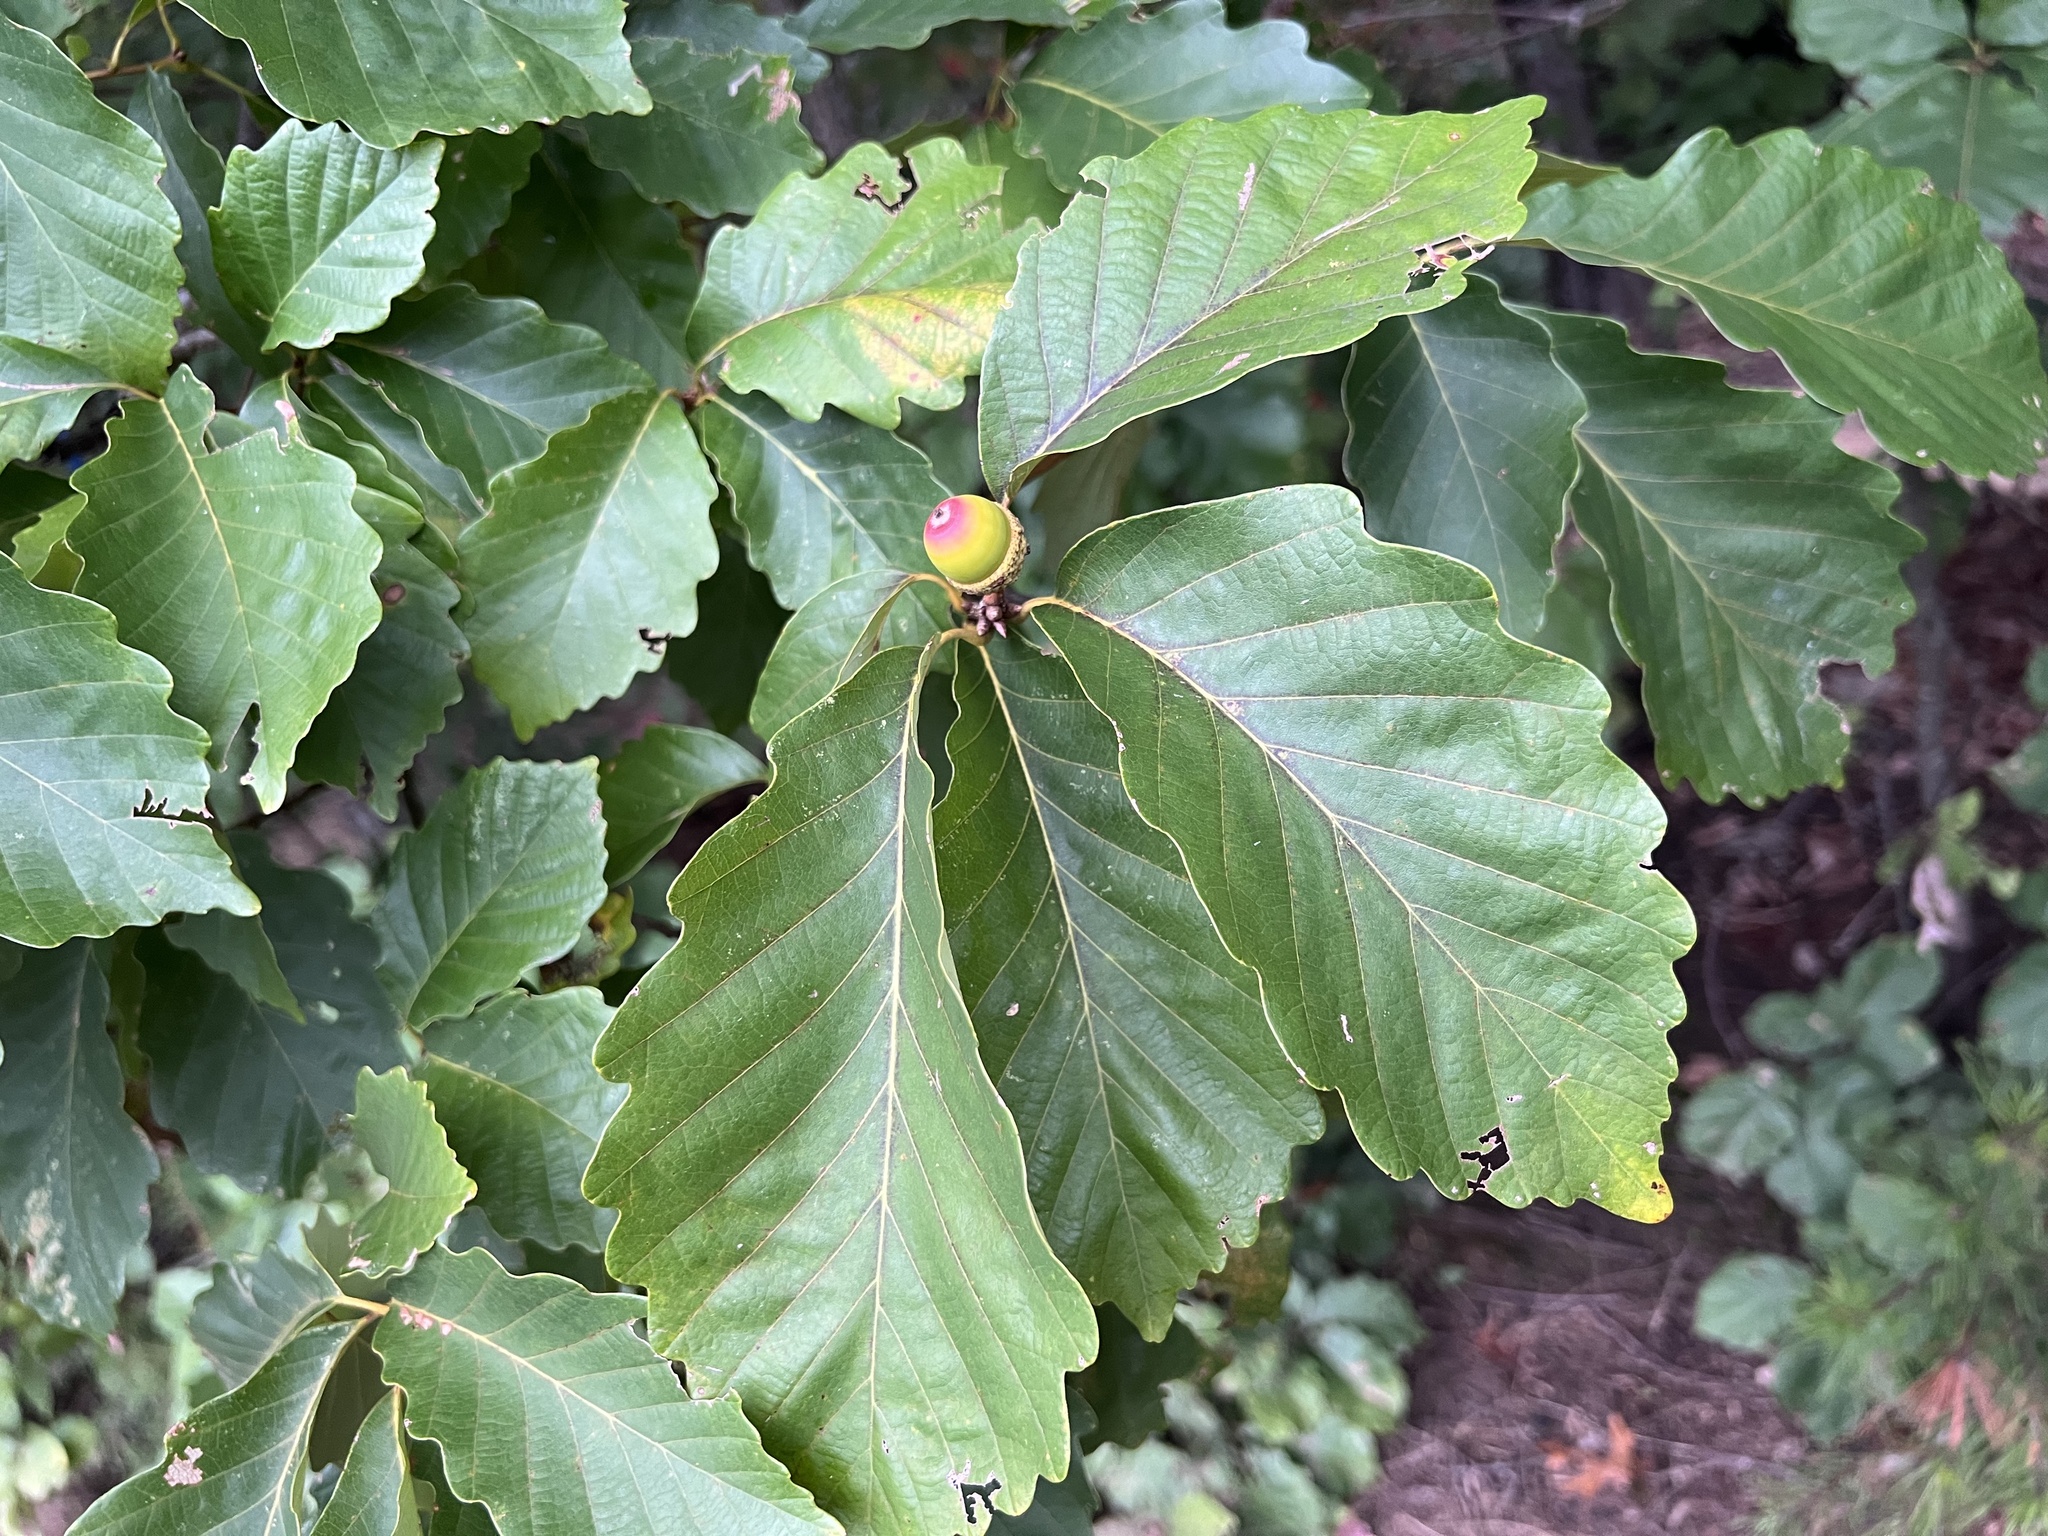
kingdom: Plantae
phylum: Tracheophyta
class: Magnoliopsida
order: Fagales
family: Fagaceae
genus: Quercus
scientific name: Quercus montana
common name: Chestnut oak
